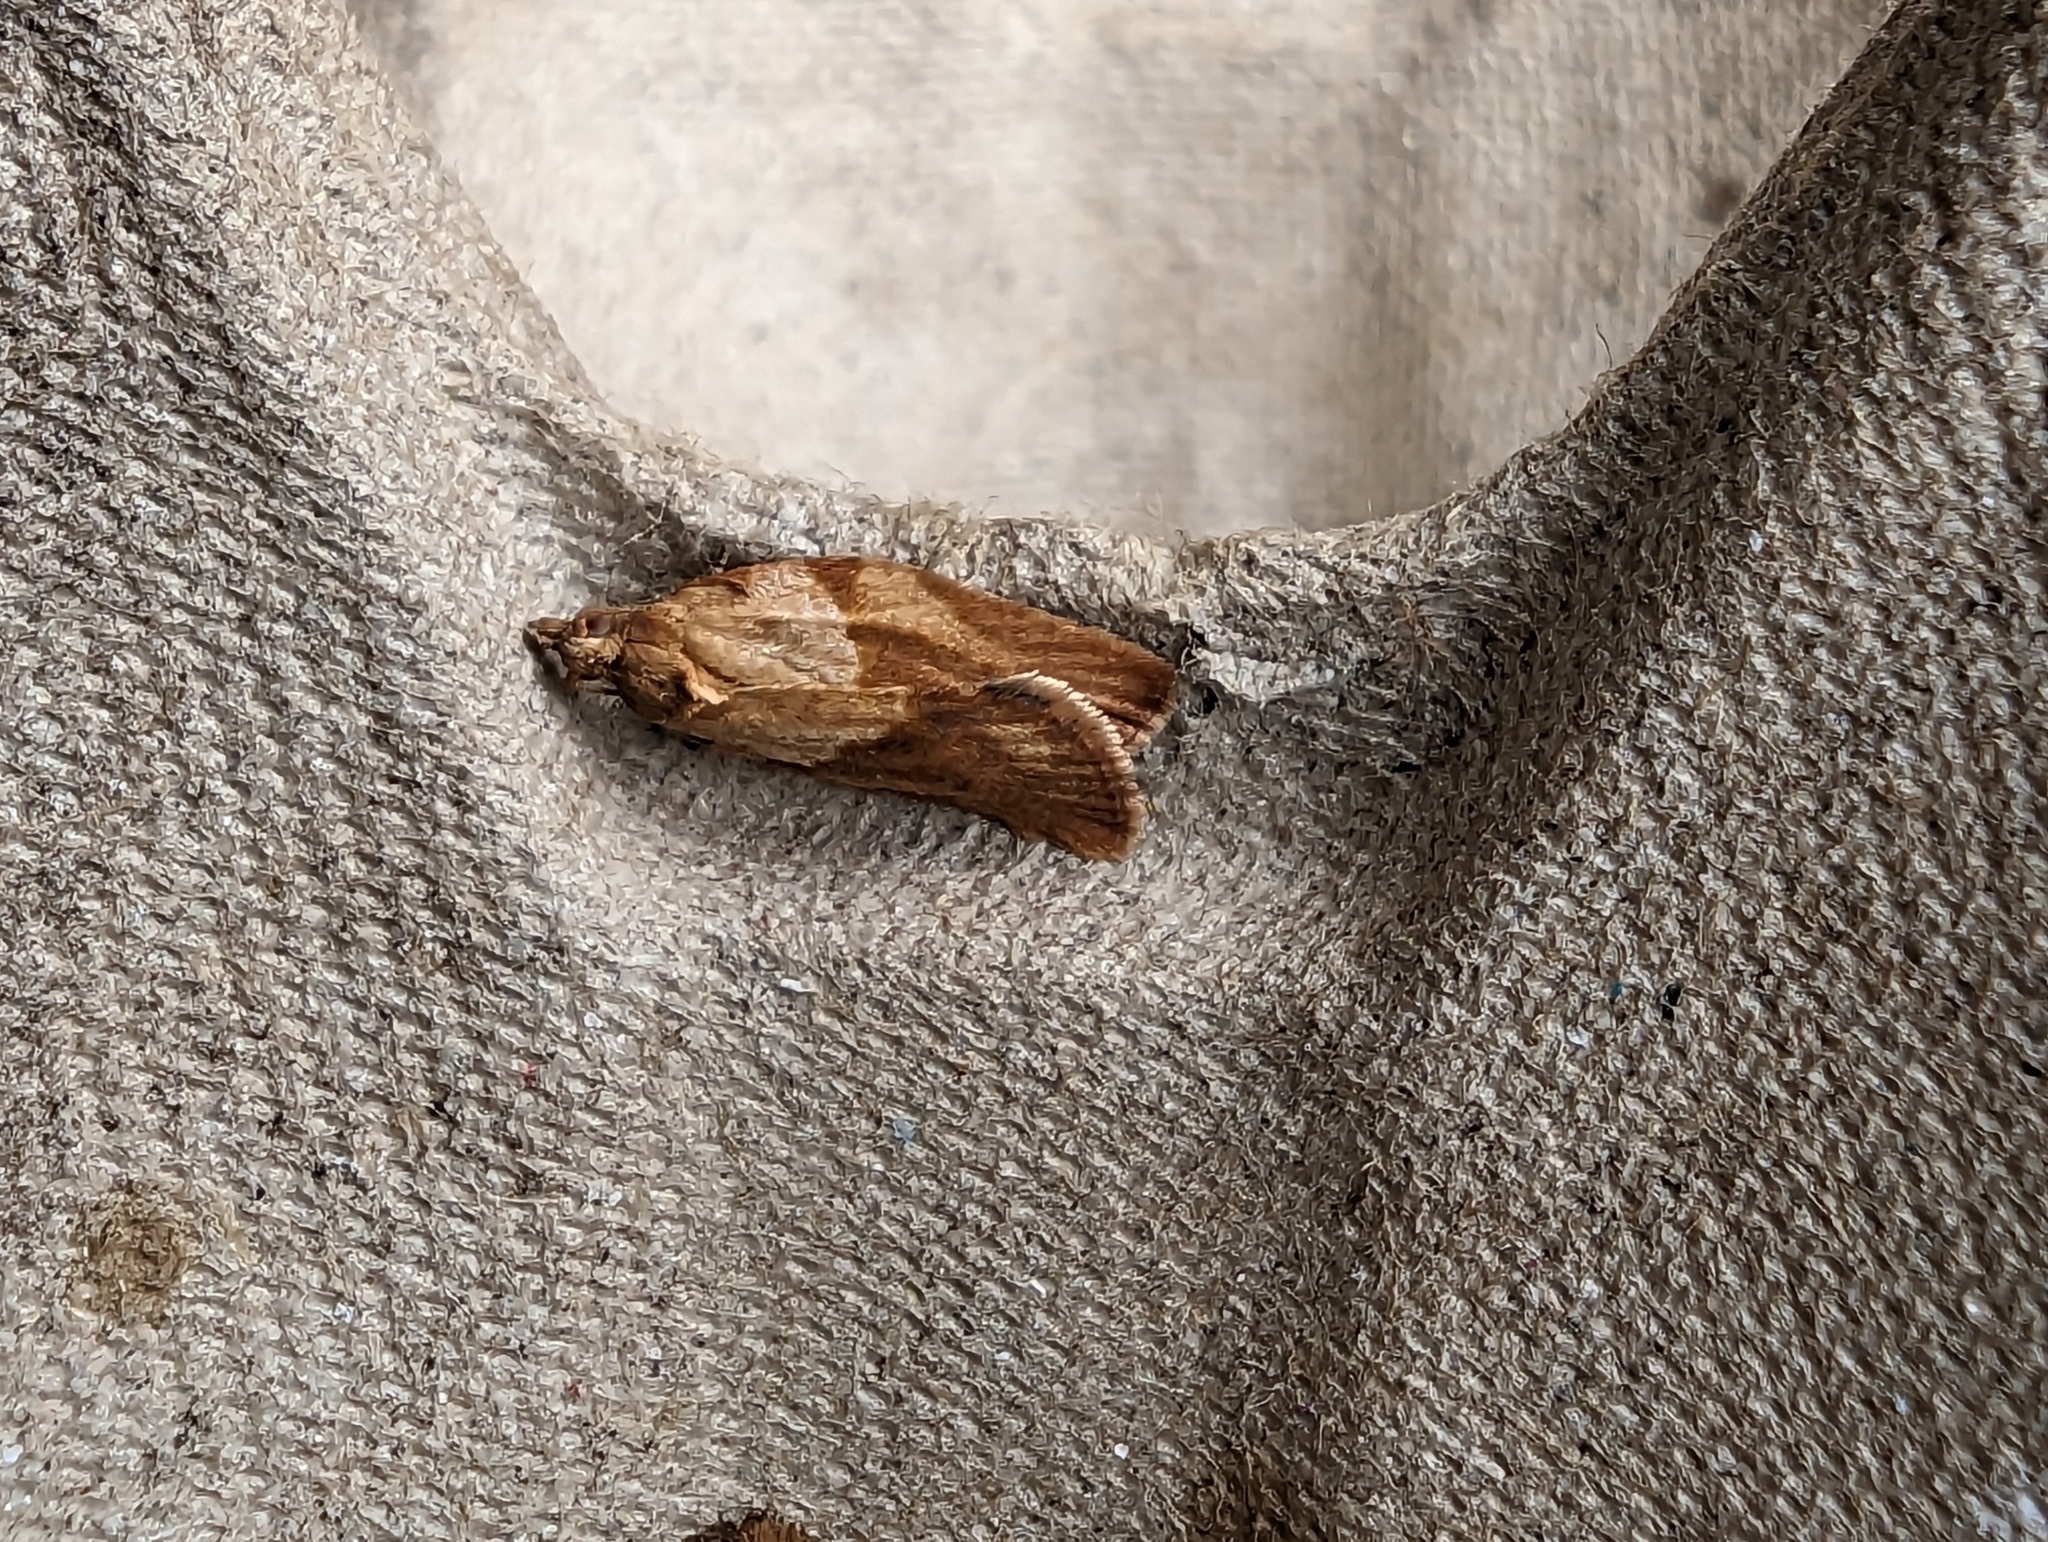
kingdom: Animalia
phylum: Arthropoda
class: Insecta
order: Lepidoptera
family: Tortricidae
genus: Epiphyas
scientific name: Epiphyas postvittana
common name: Light brown apple moth
